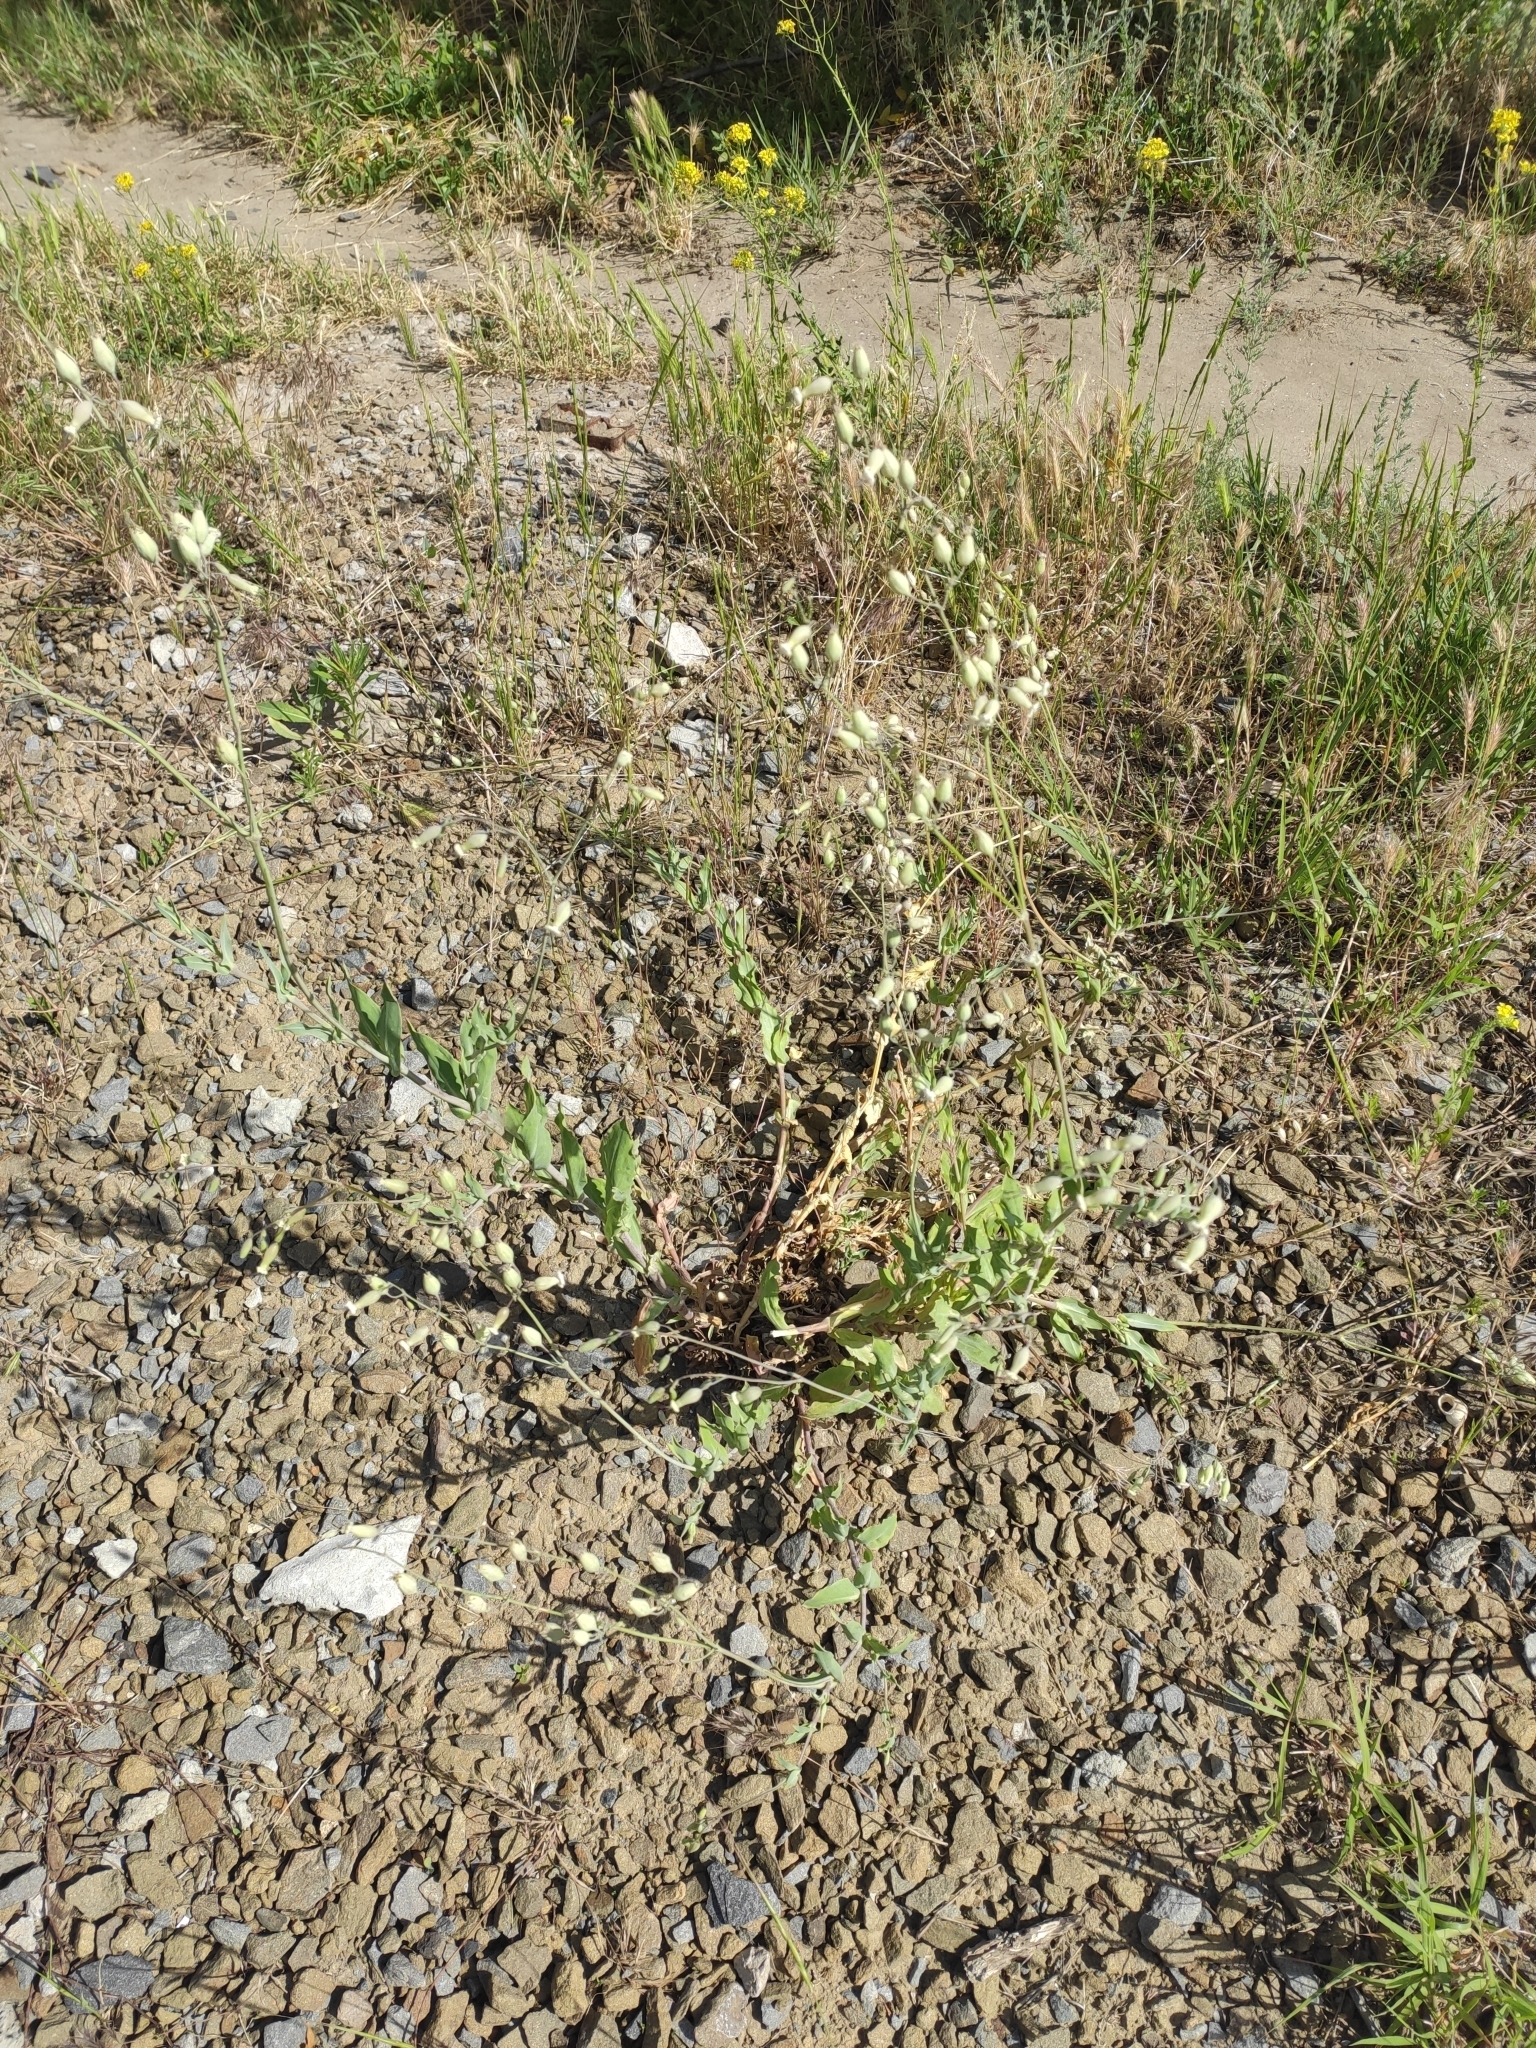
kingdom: Plantae
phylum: Tracheophyta
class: Magnoliopsida
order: Caryophyllales
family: Caryophyllaceae
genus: Silene
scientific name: Silene csereii
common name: Balkan catchfly
